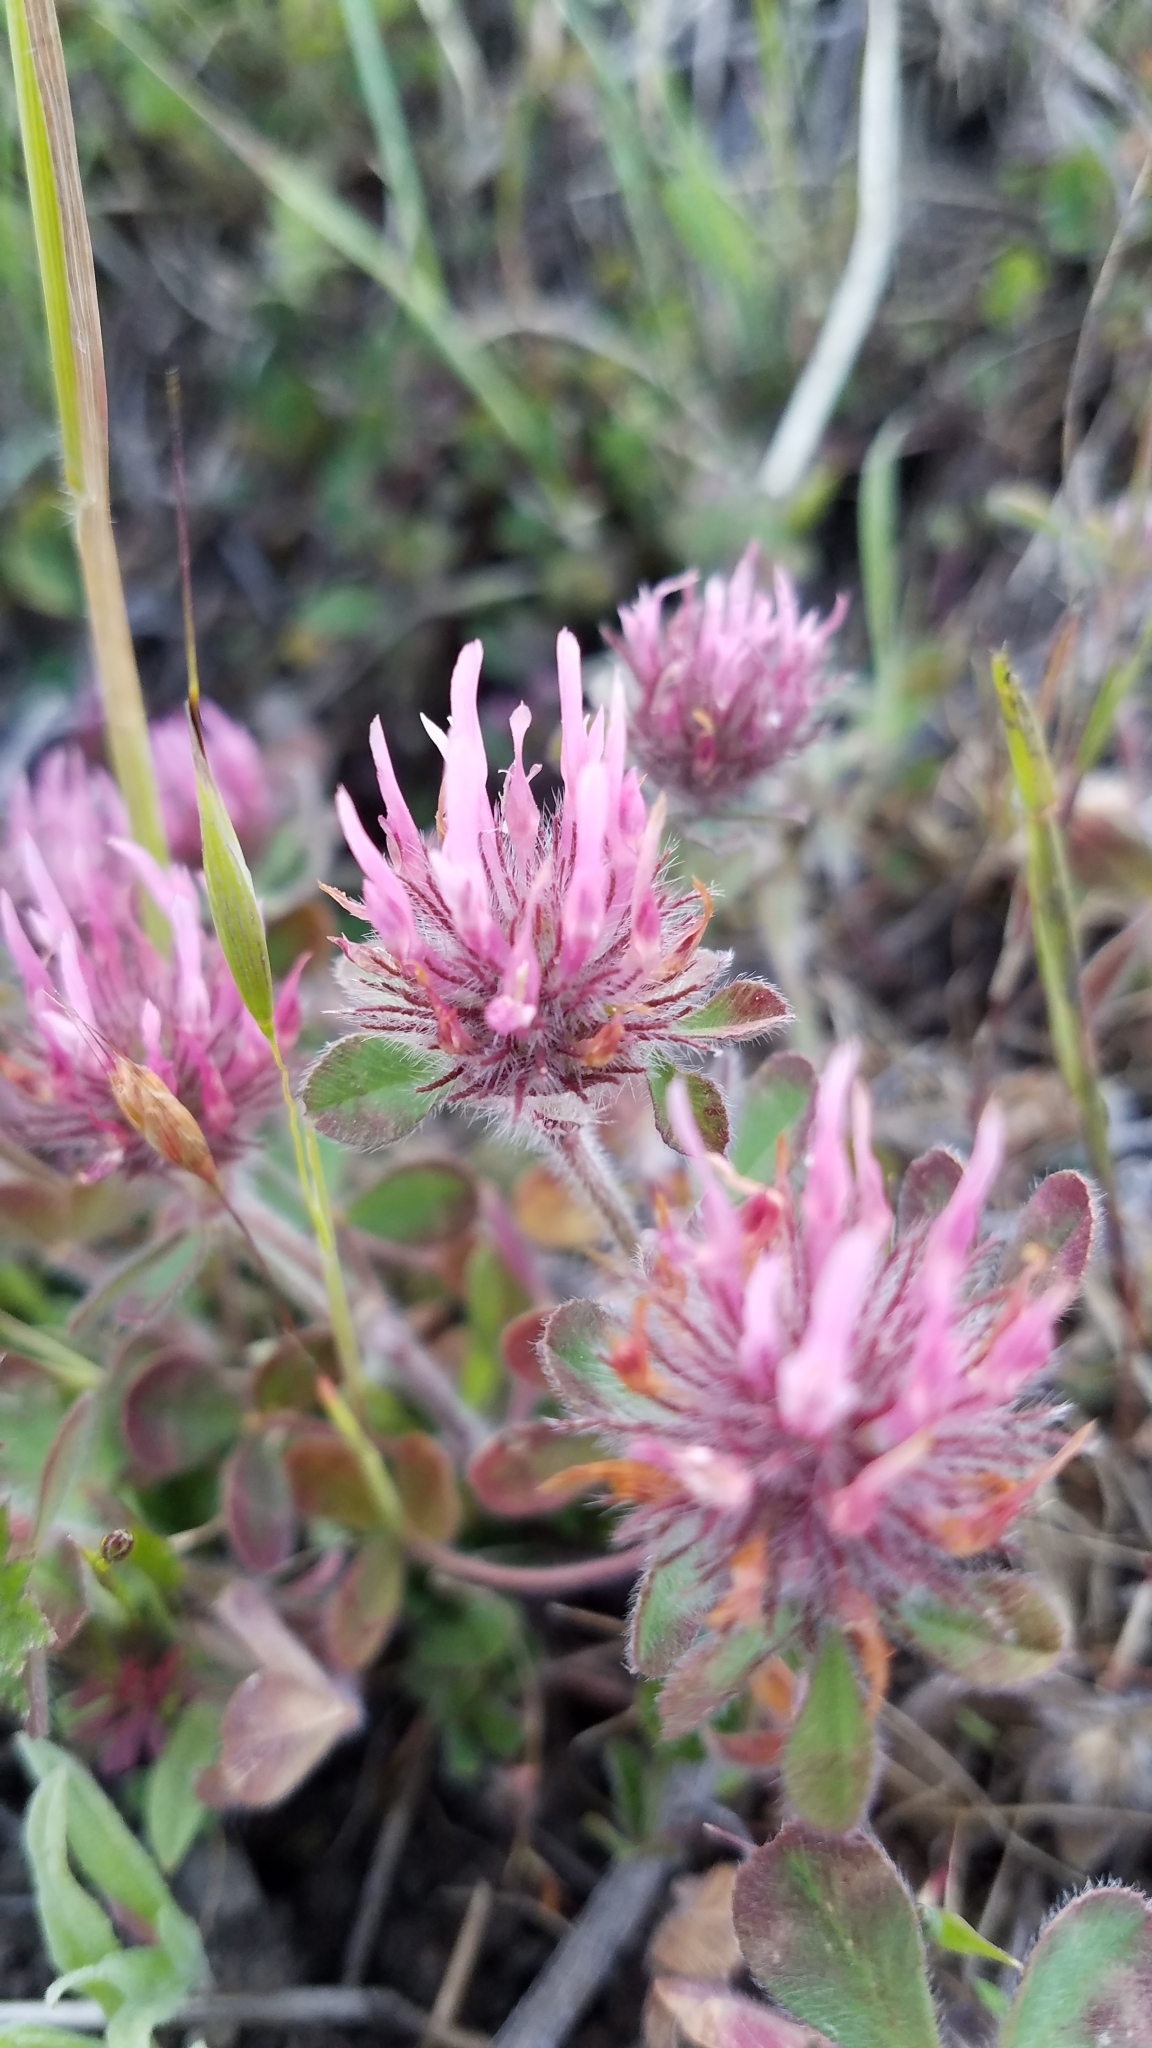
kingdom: Plantae
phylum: Tracheophyta
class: Magnoliopsida
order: Fabales
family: Fabaceae
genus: Trifolium
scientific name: Trifolium hirtum
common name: Rose clover
